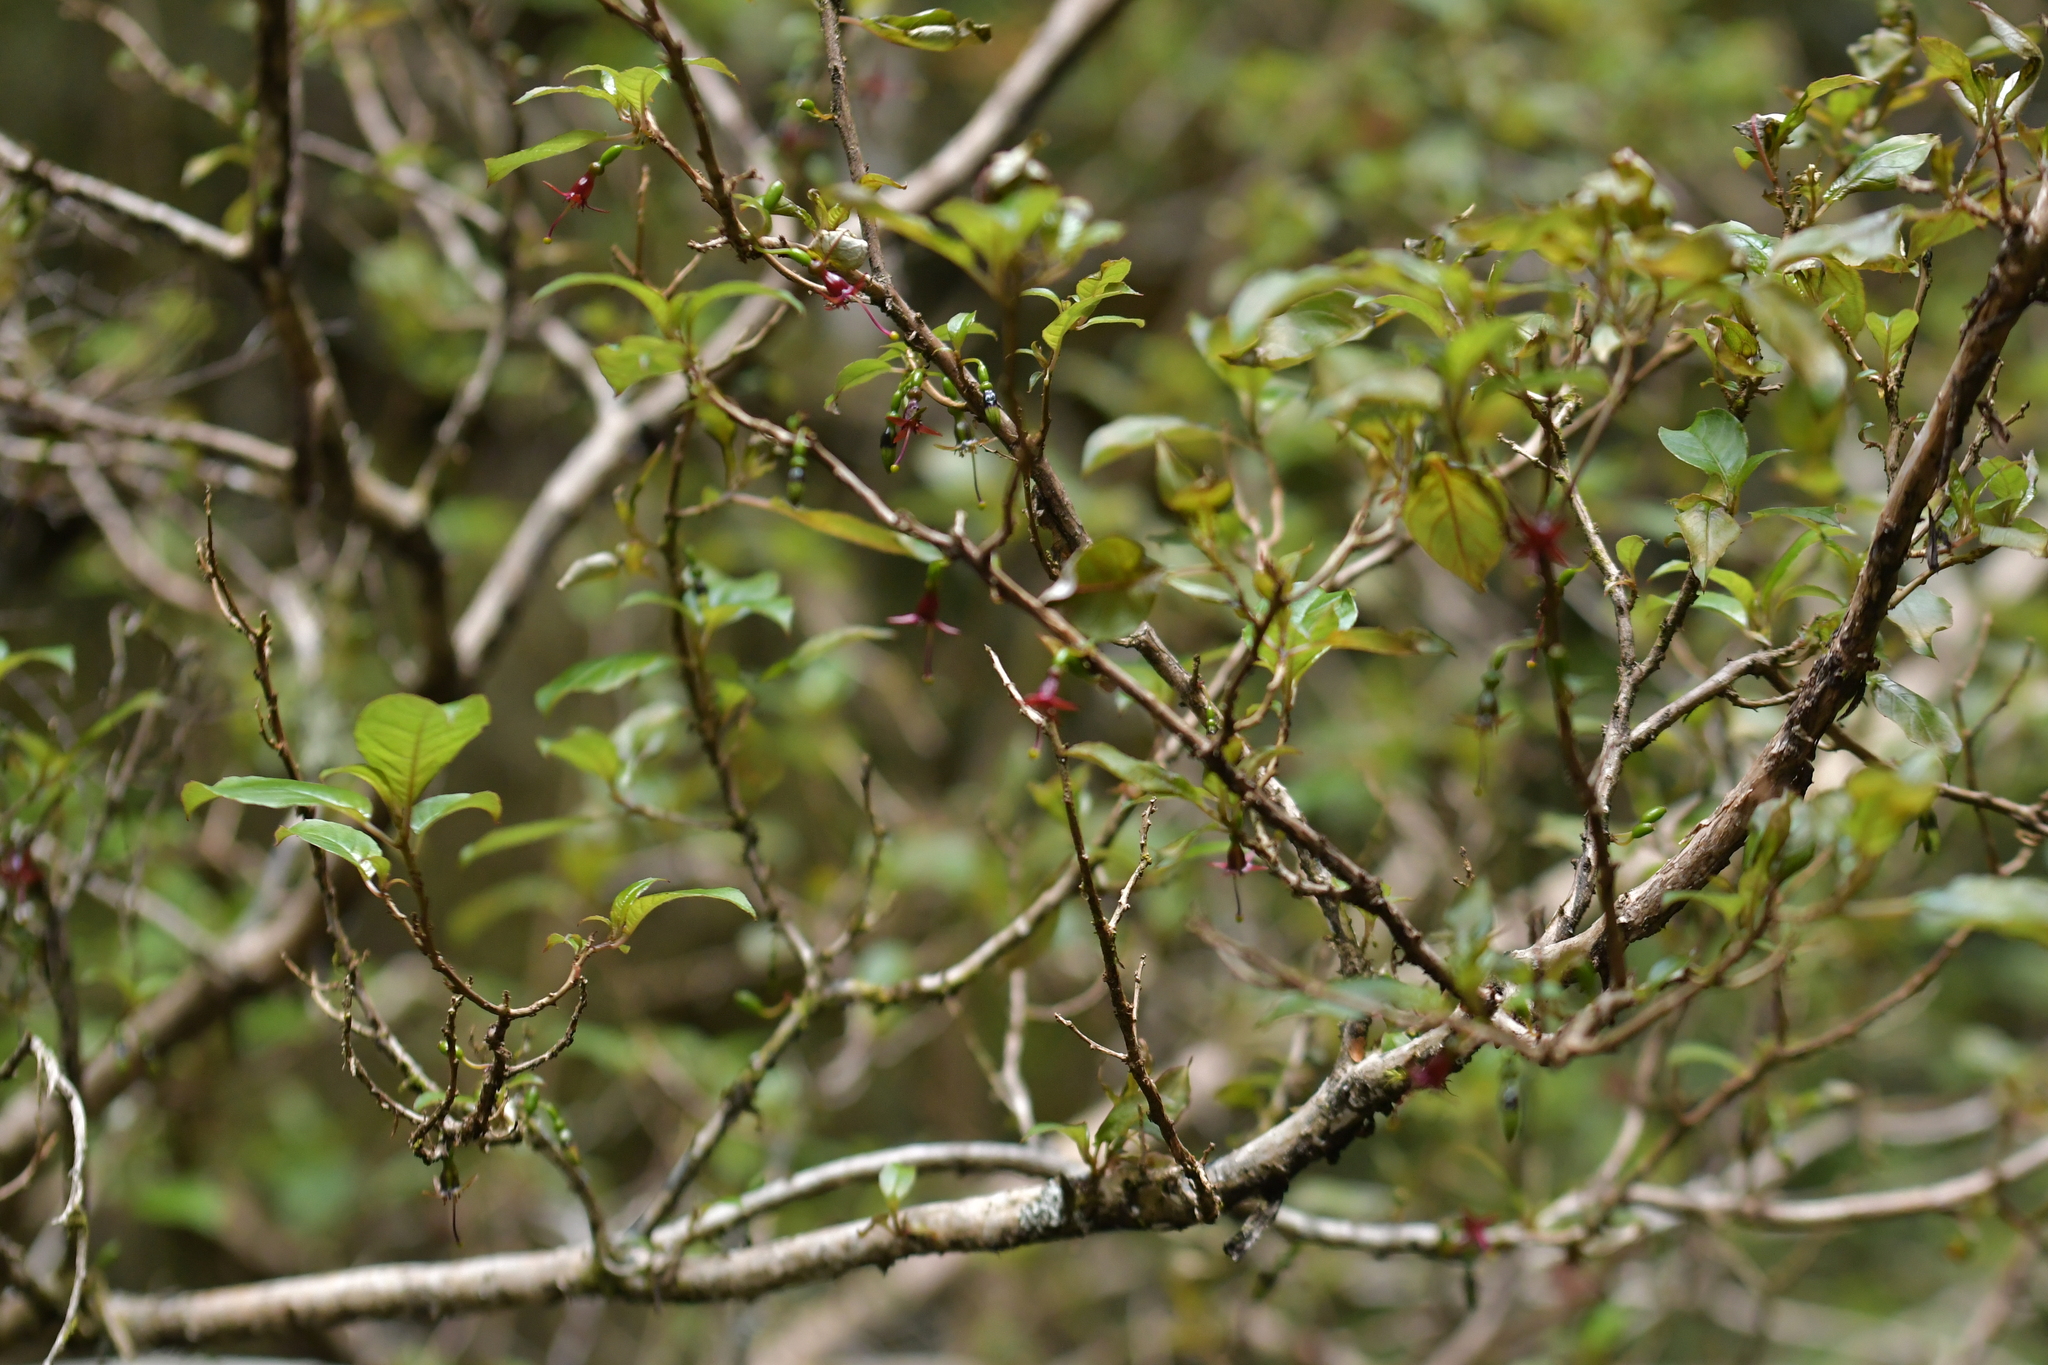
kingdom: Plantae
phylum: Tracheophyta
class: Magnoliopsida
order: Myrtales
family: Onagraceae
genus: Fuchsia
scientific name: Fuchsia excorticata
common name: Tree fuchsia
